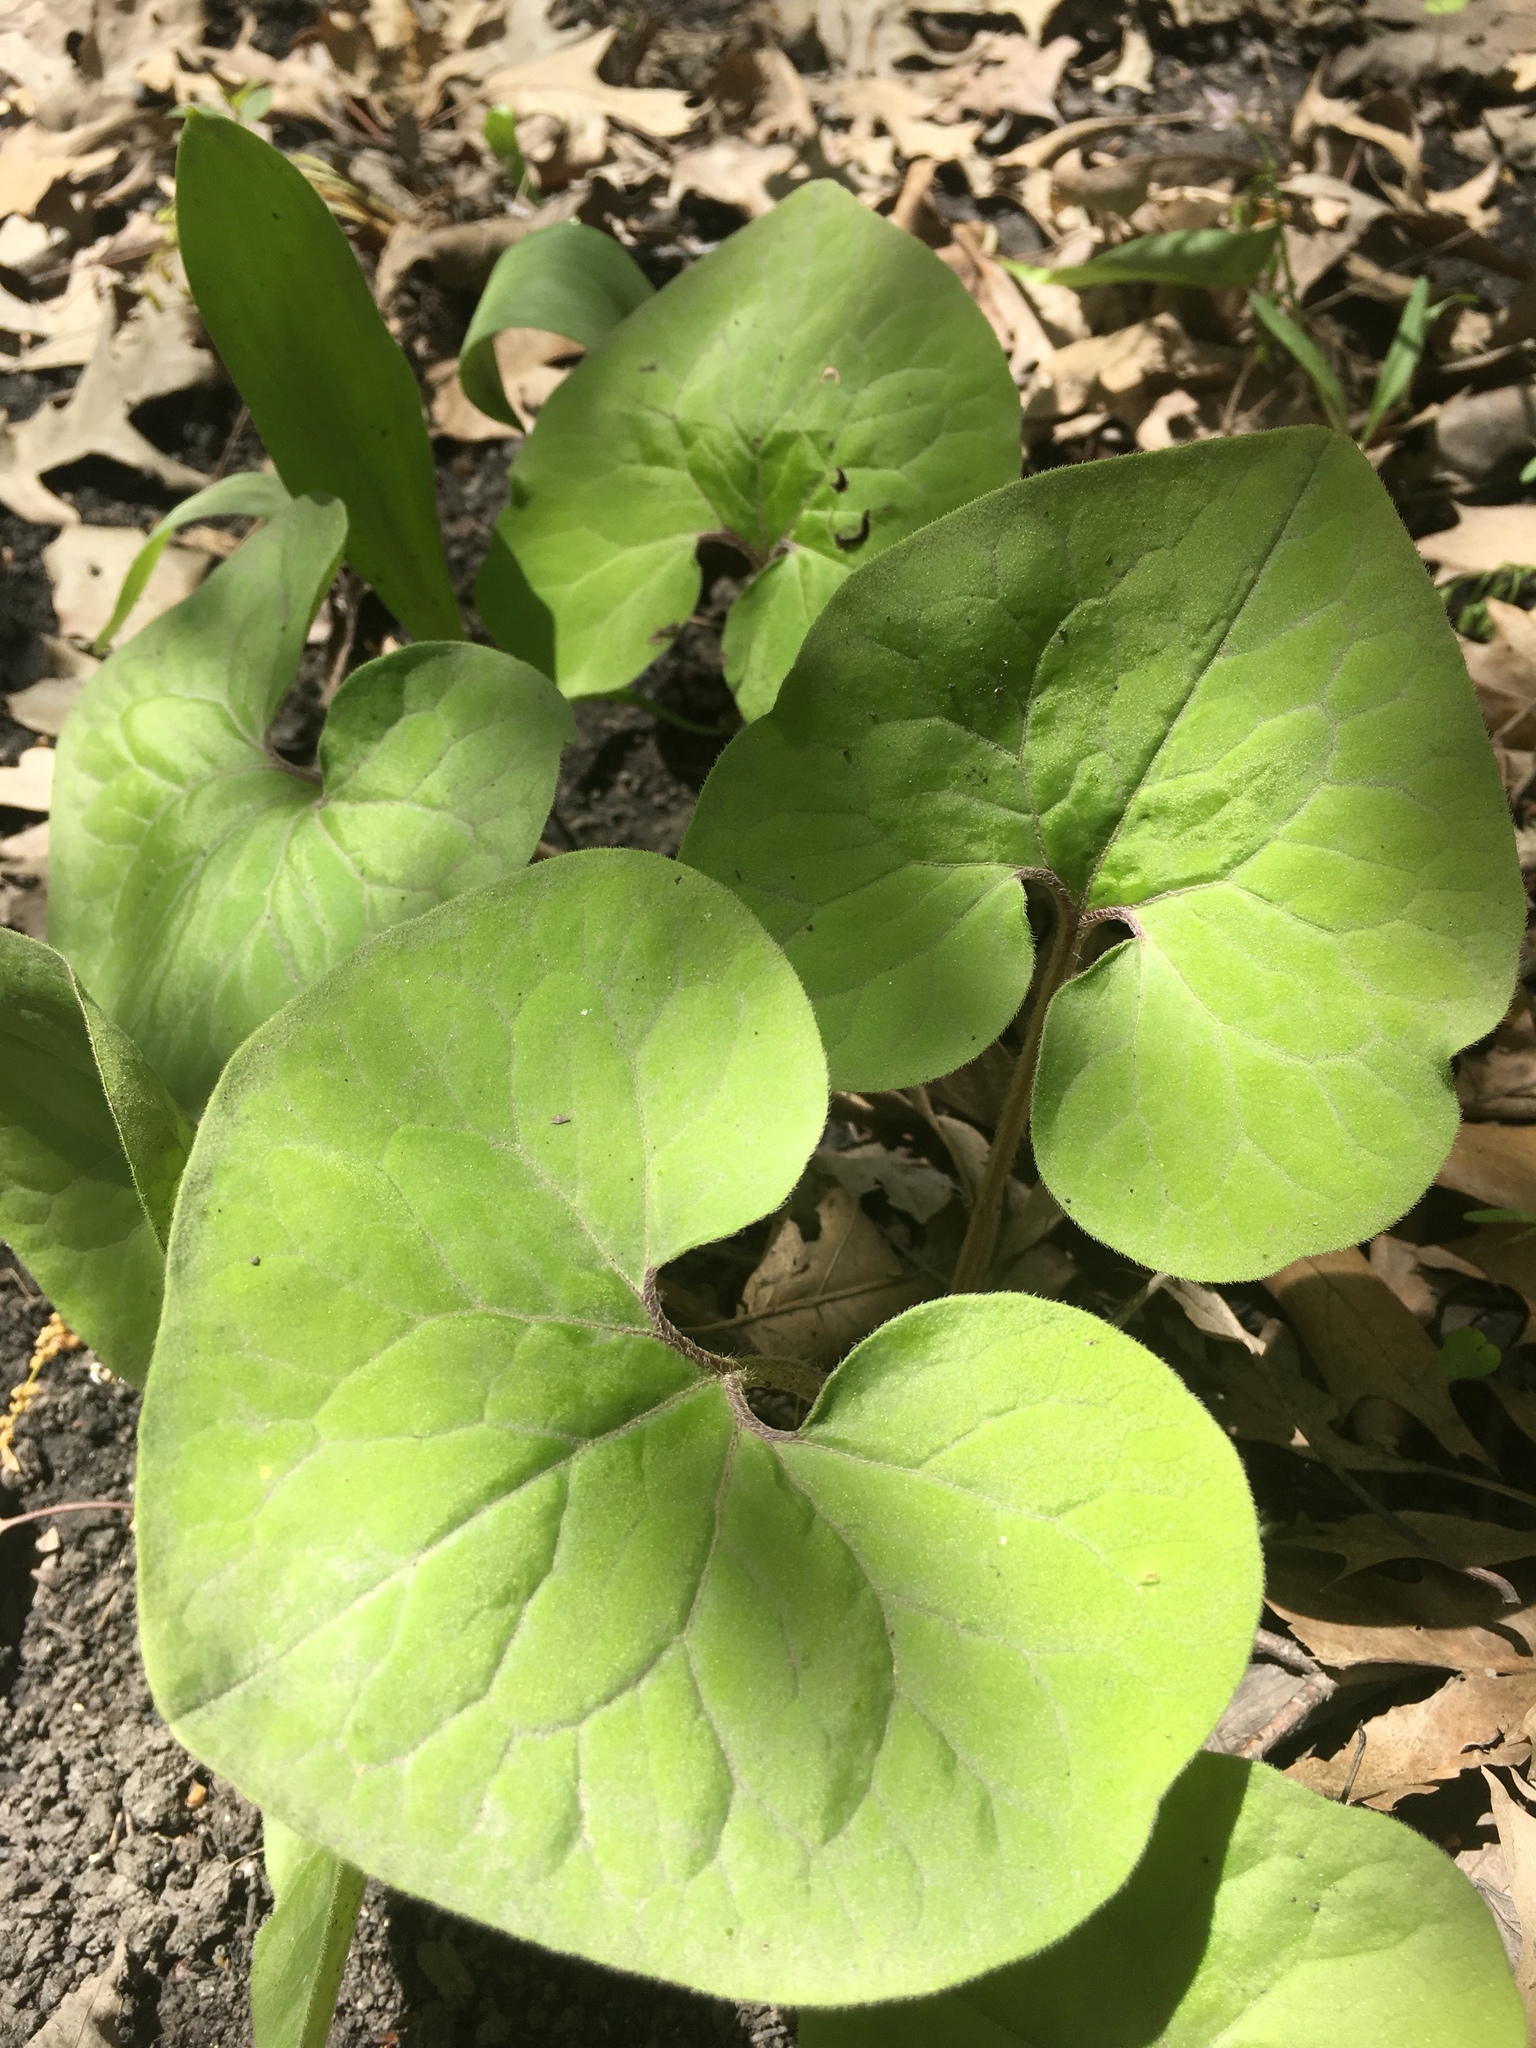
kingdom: Plantae
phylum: Tracheophyta
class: Magnoliopsida
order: Piperales
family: Aristolochiaceae
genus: Asarum
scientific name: Asarum canadense
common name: Wild ginger
